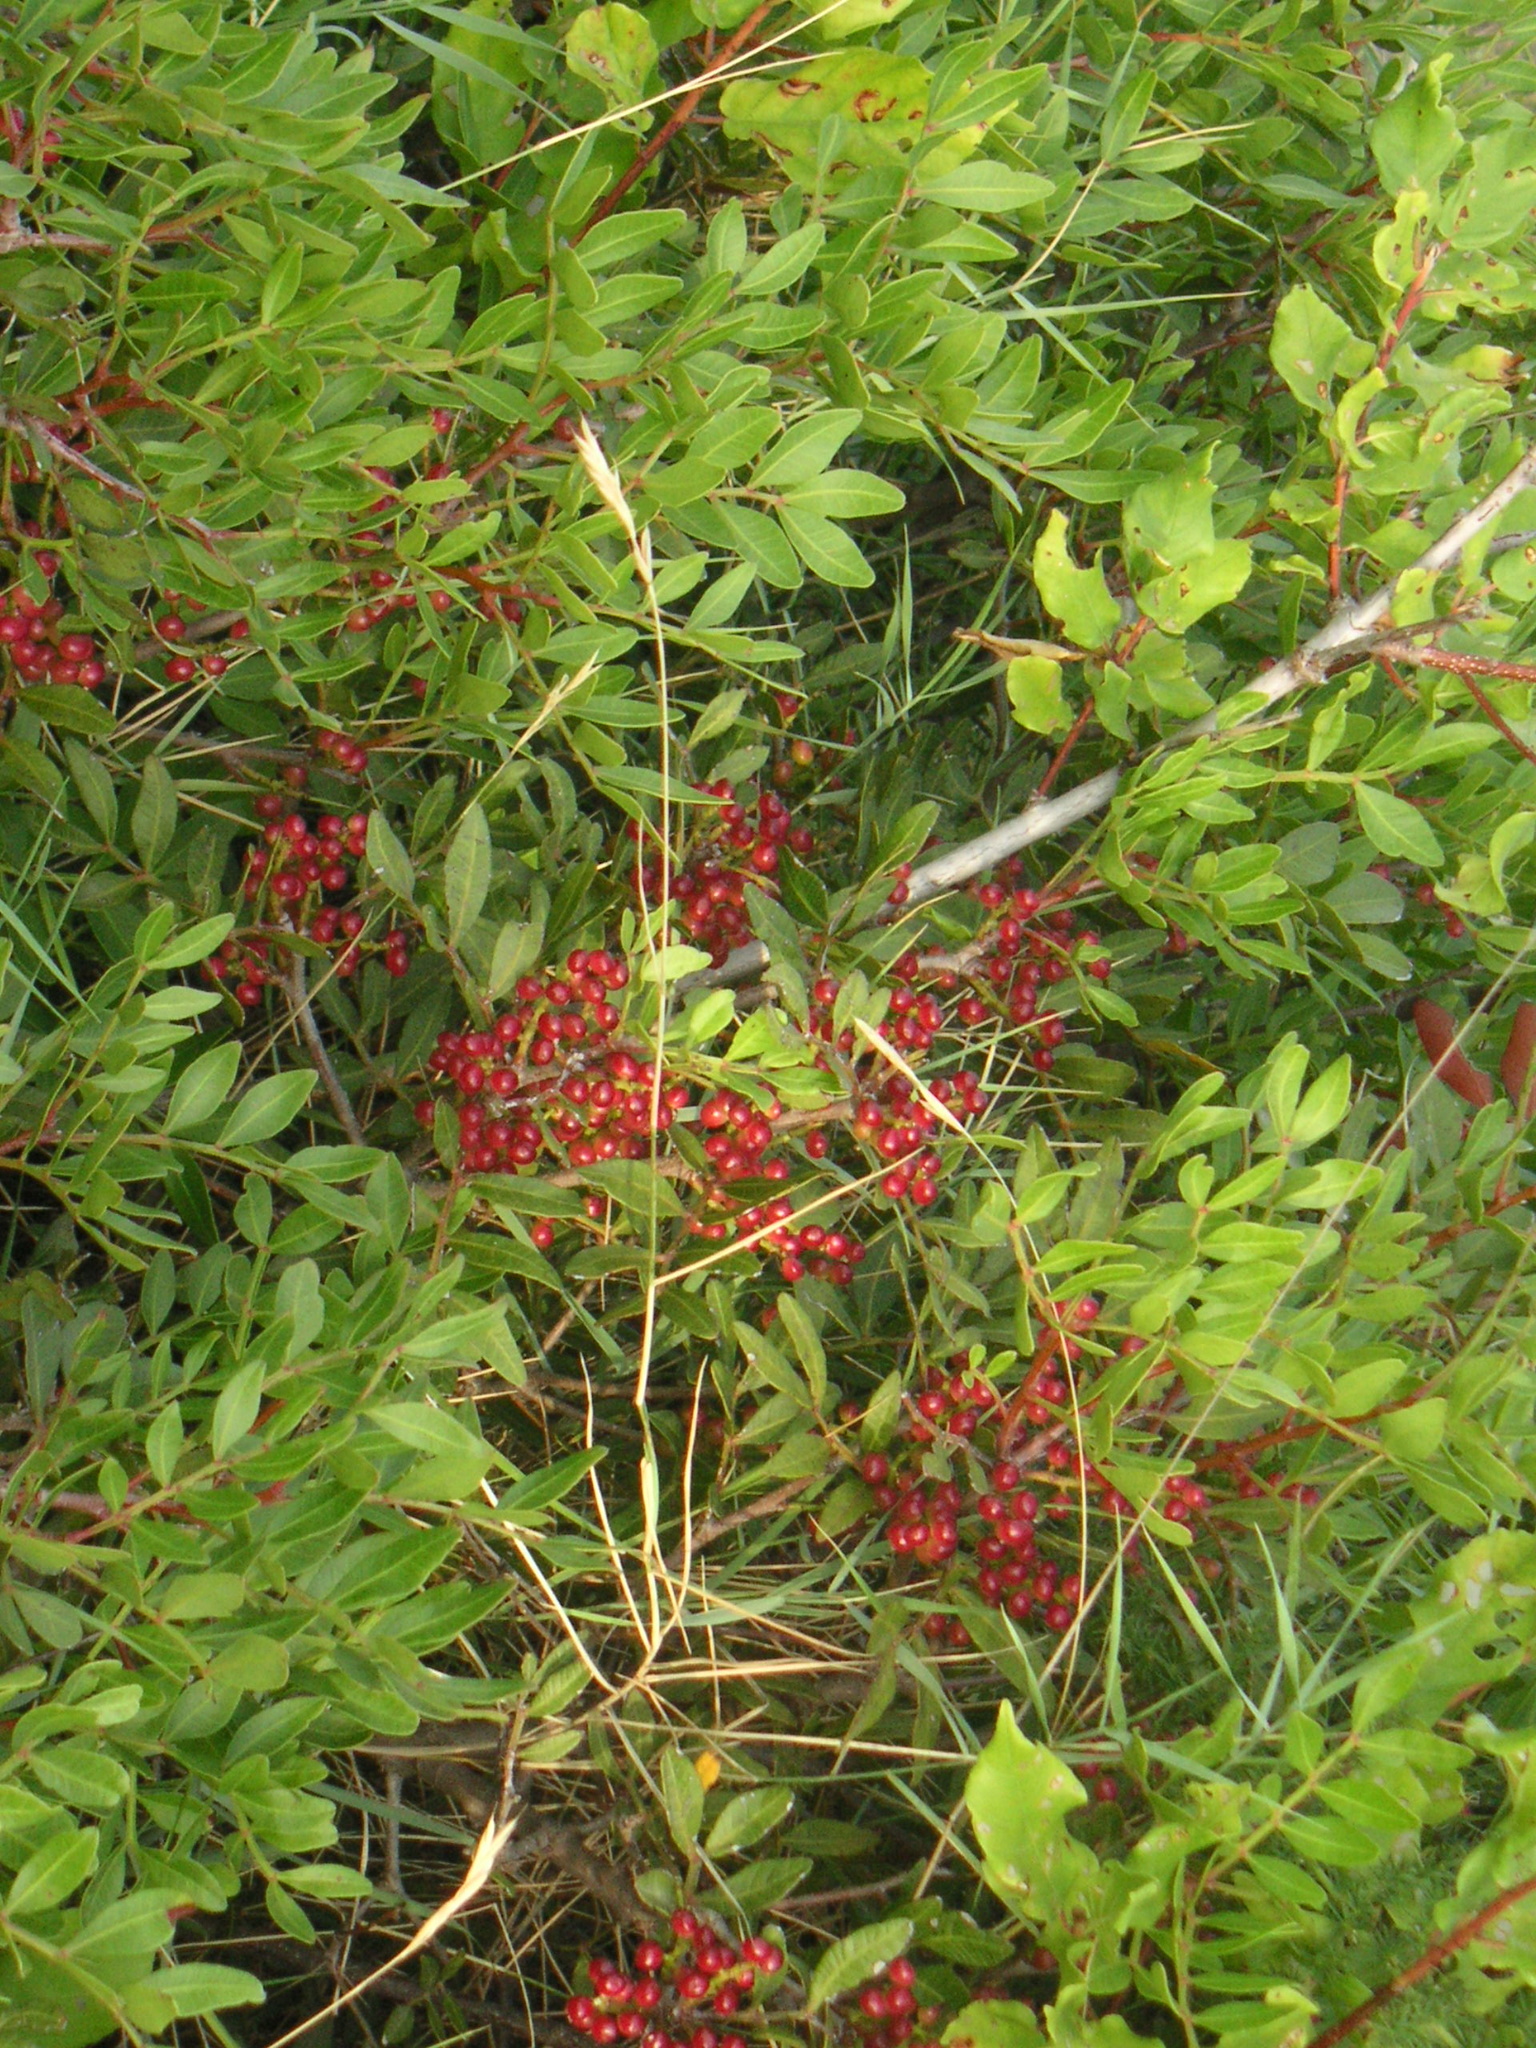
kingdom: Plantae
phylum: Tracheophyta
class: Magnoliopsida
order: Sapindales
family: Anacardiaceae
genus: Pistacia
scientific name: Pistacia lentiscus
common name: Lentisk
